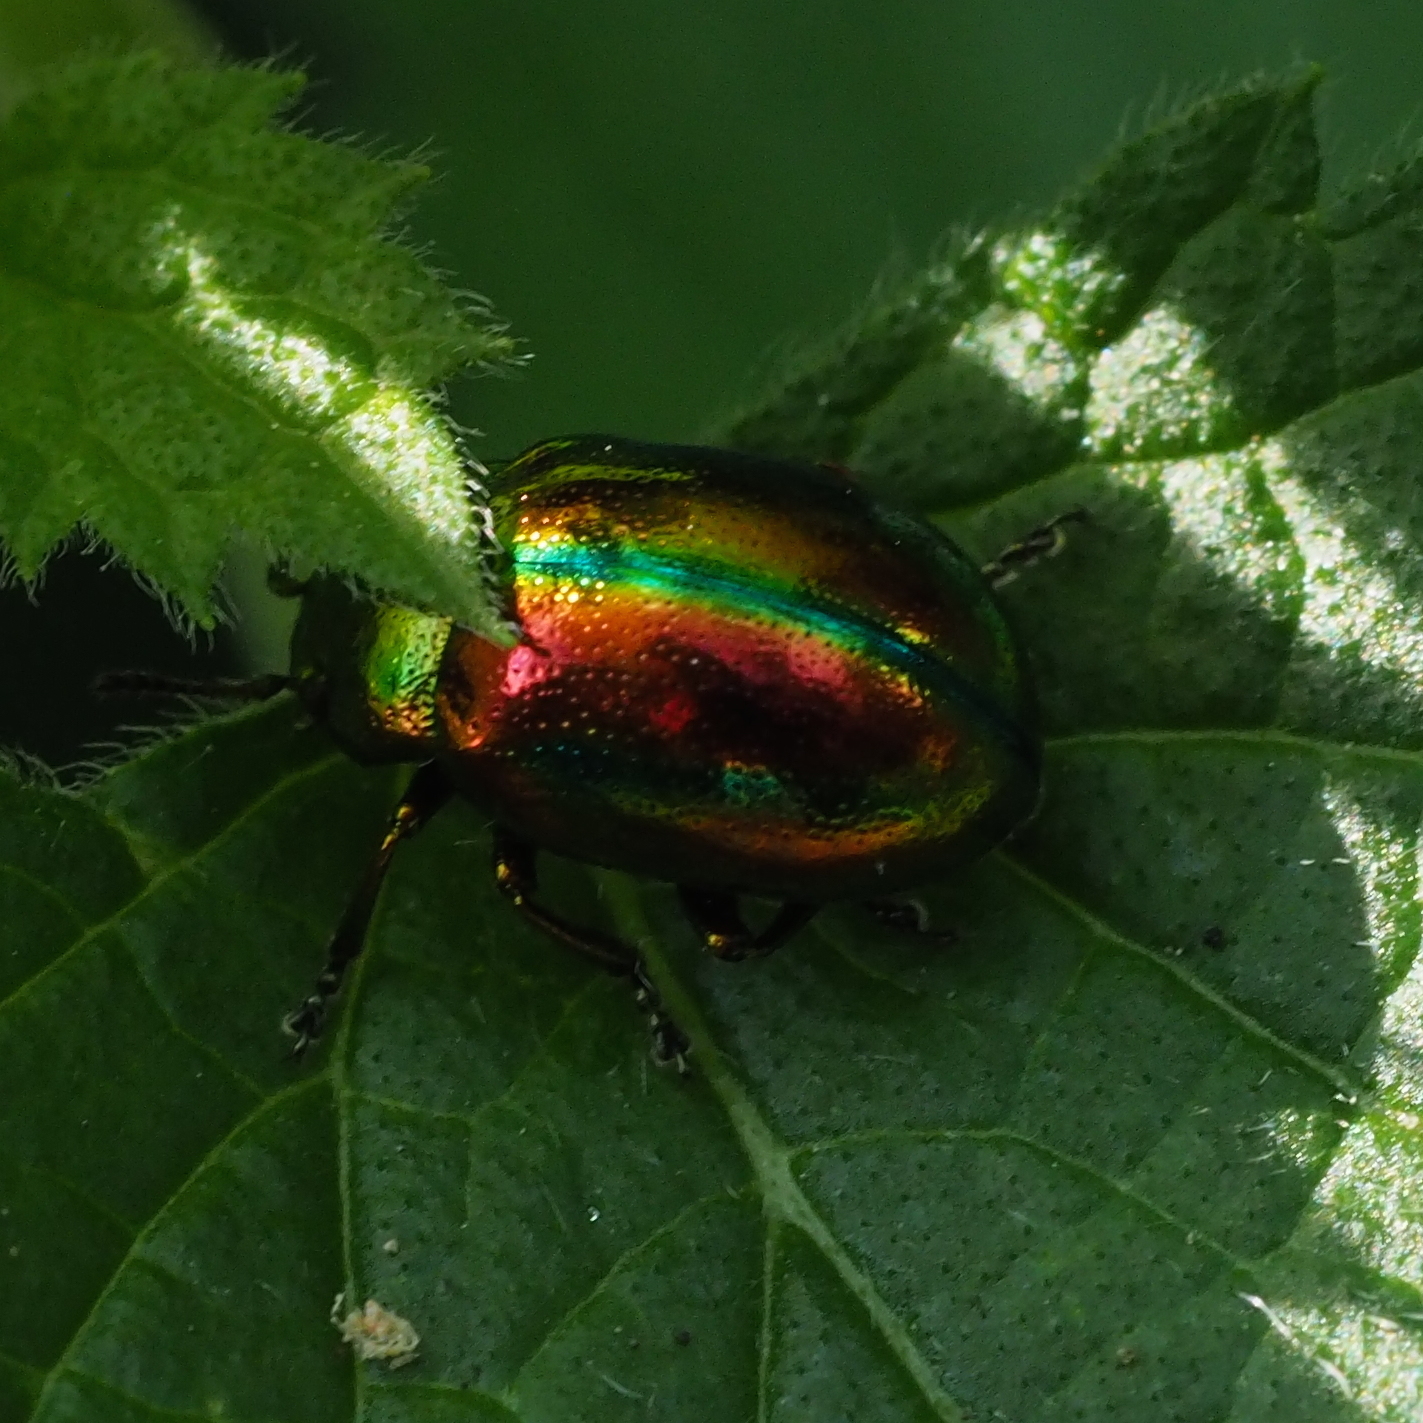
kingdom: Animalia
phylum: Arthropoda
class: Insecta
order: Coleoptera
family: Chrysomelidae
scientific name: Chrysomelidae
